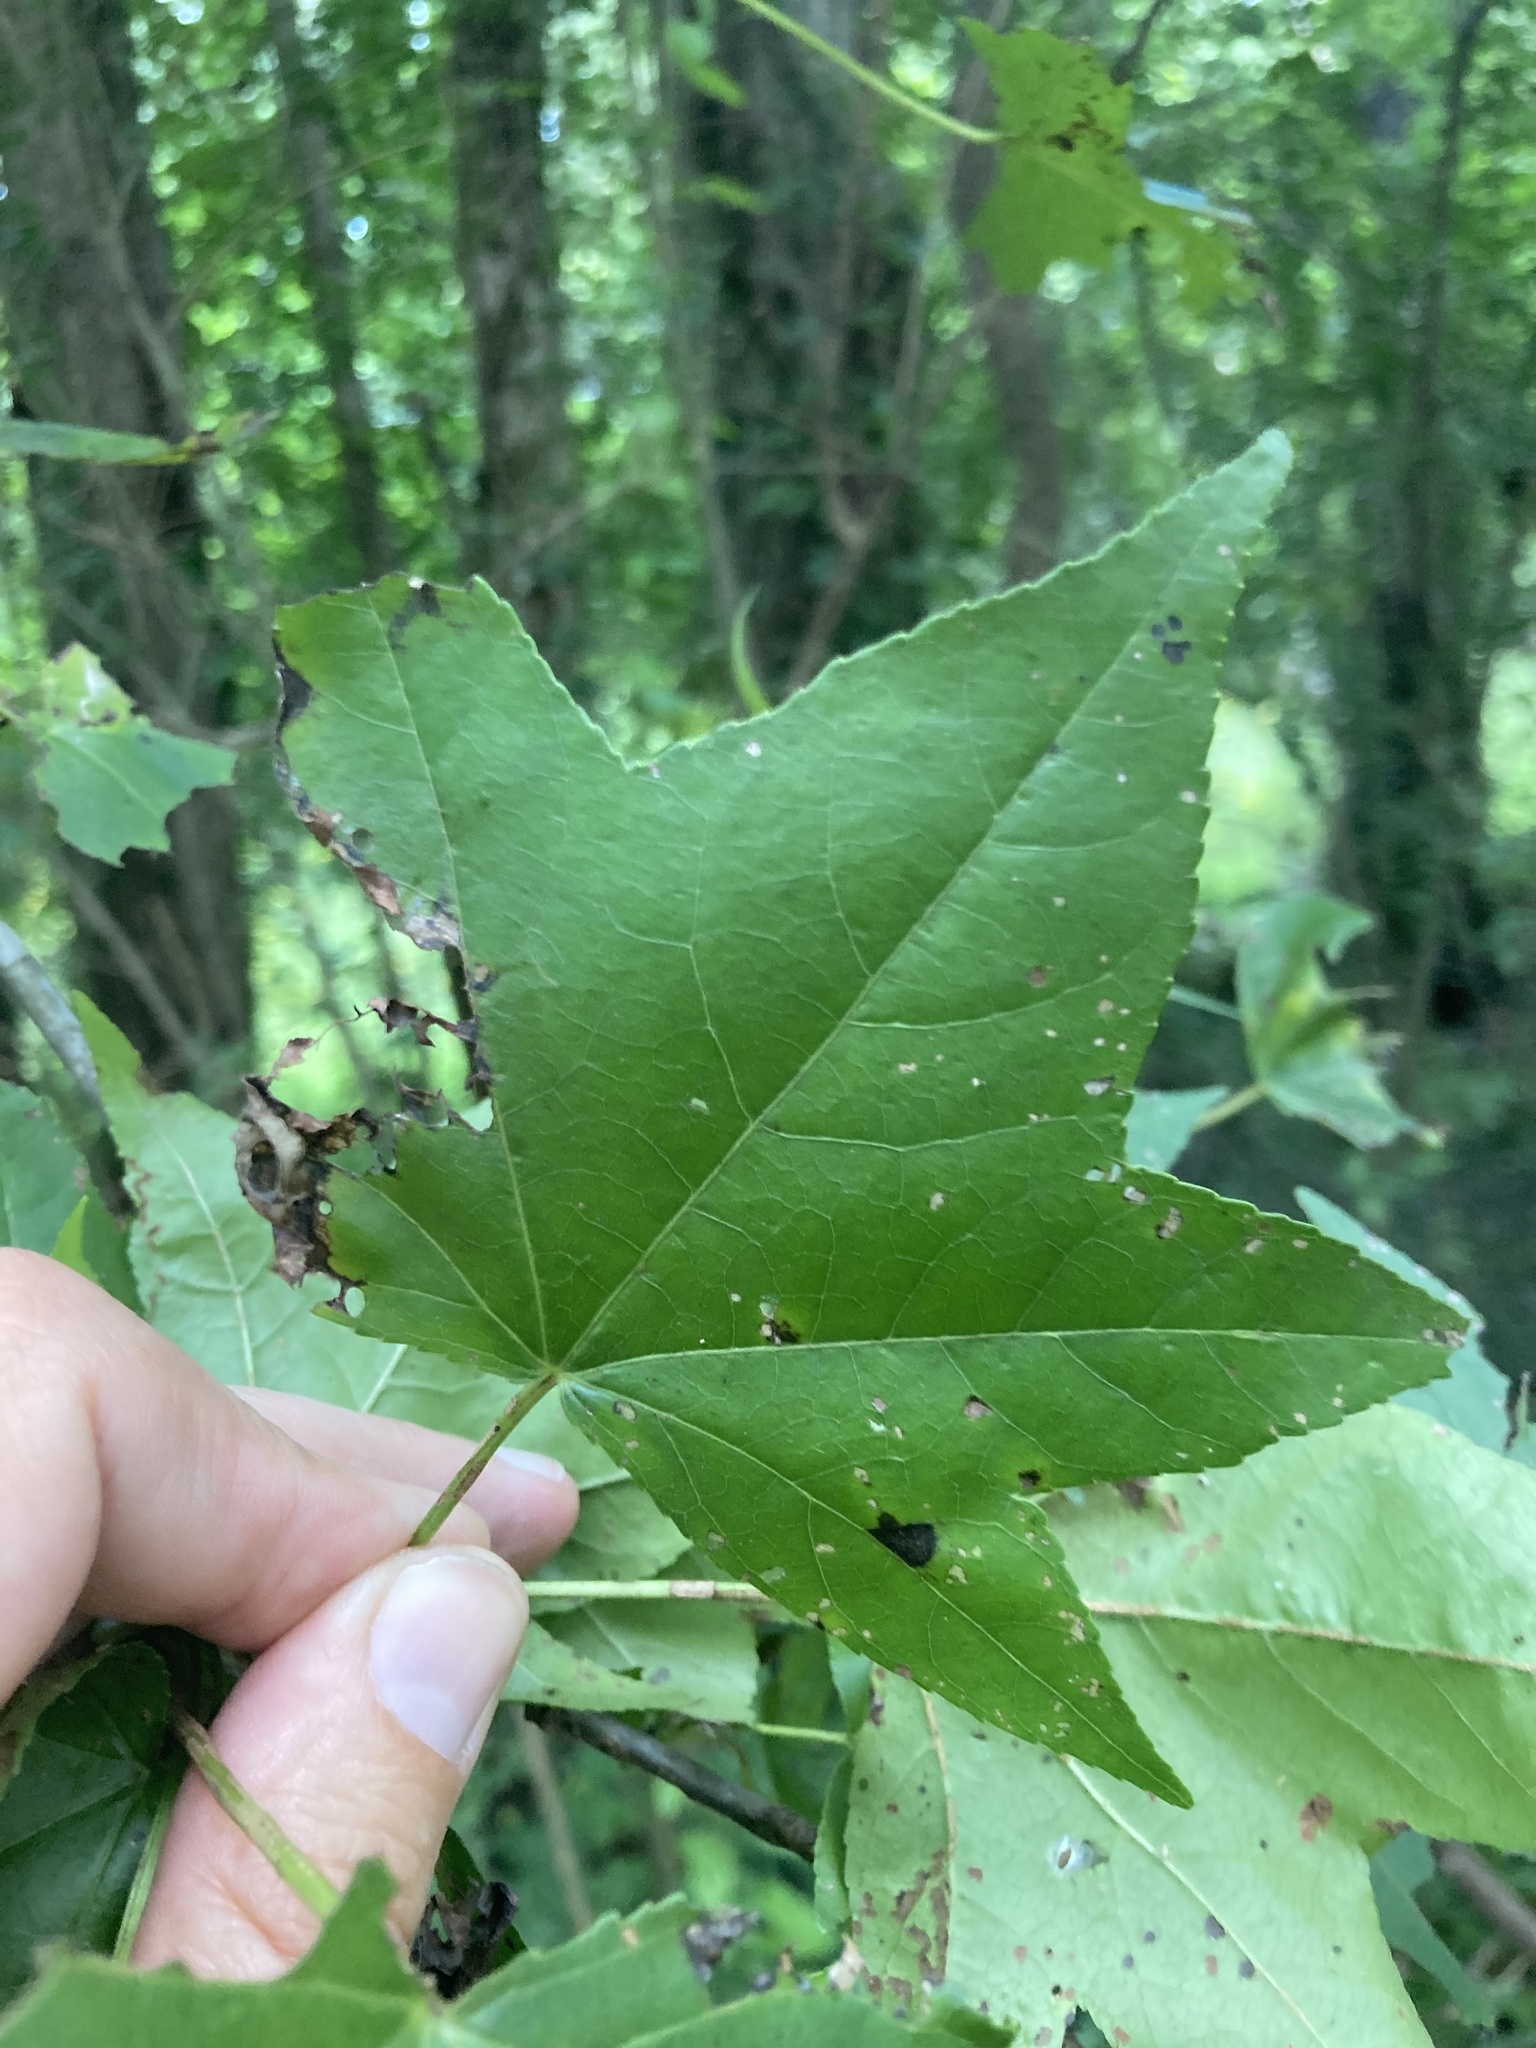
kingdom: Plantae
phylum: Tracheophyta
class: Magnoliopsida
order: Saxifragales
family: Altingiaceae
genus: Liquidambar
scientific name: Liquidambar styraciflua
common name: Sweet gum
